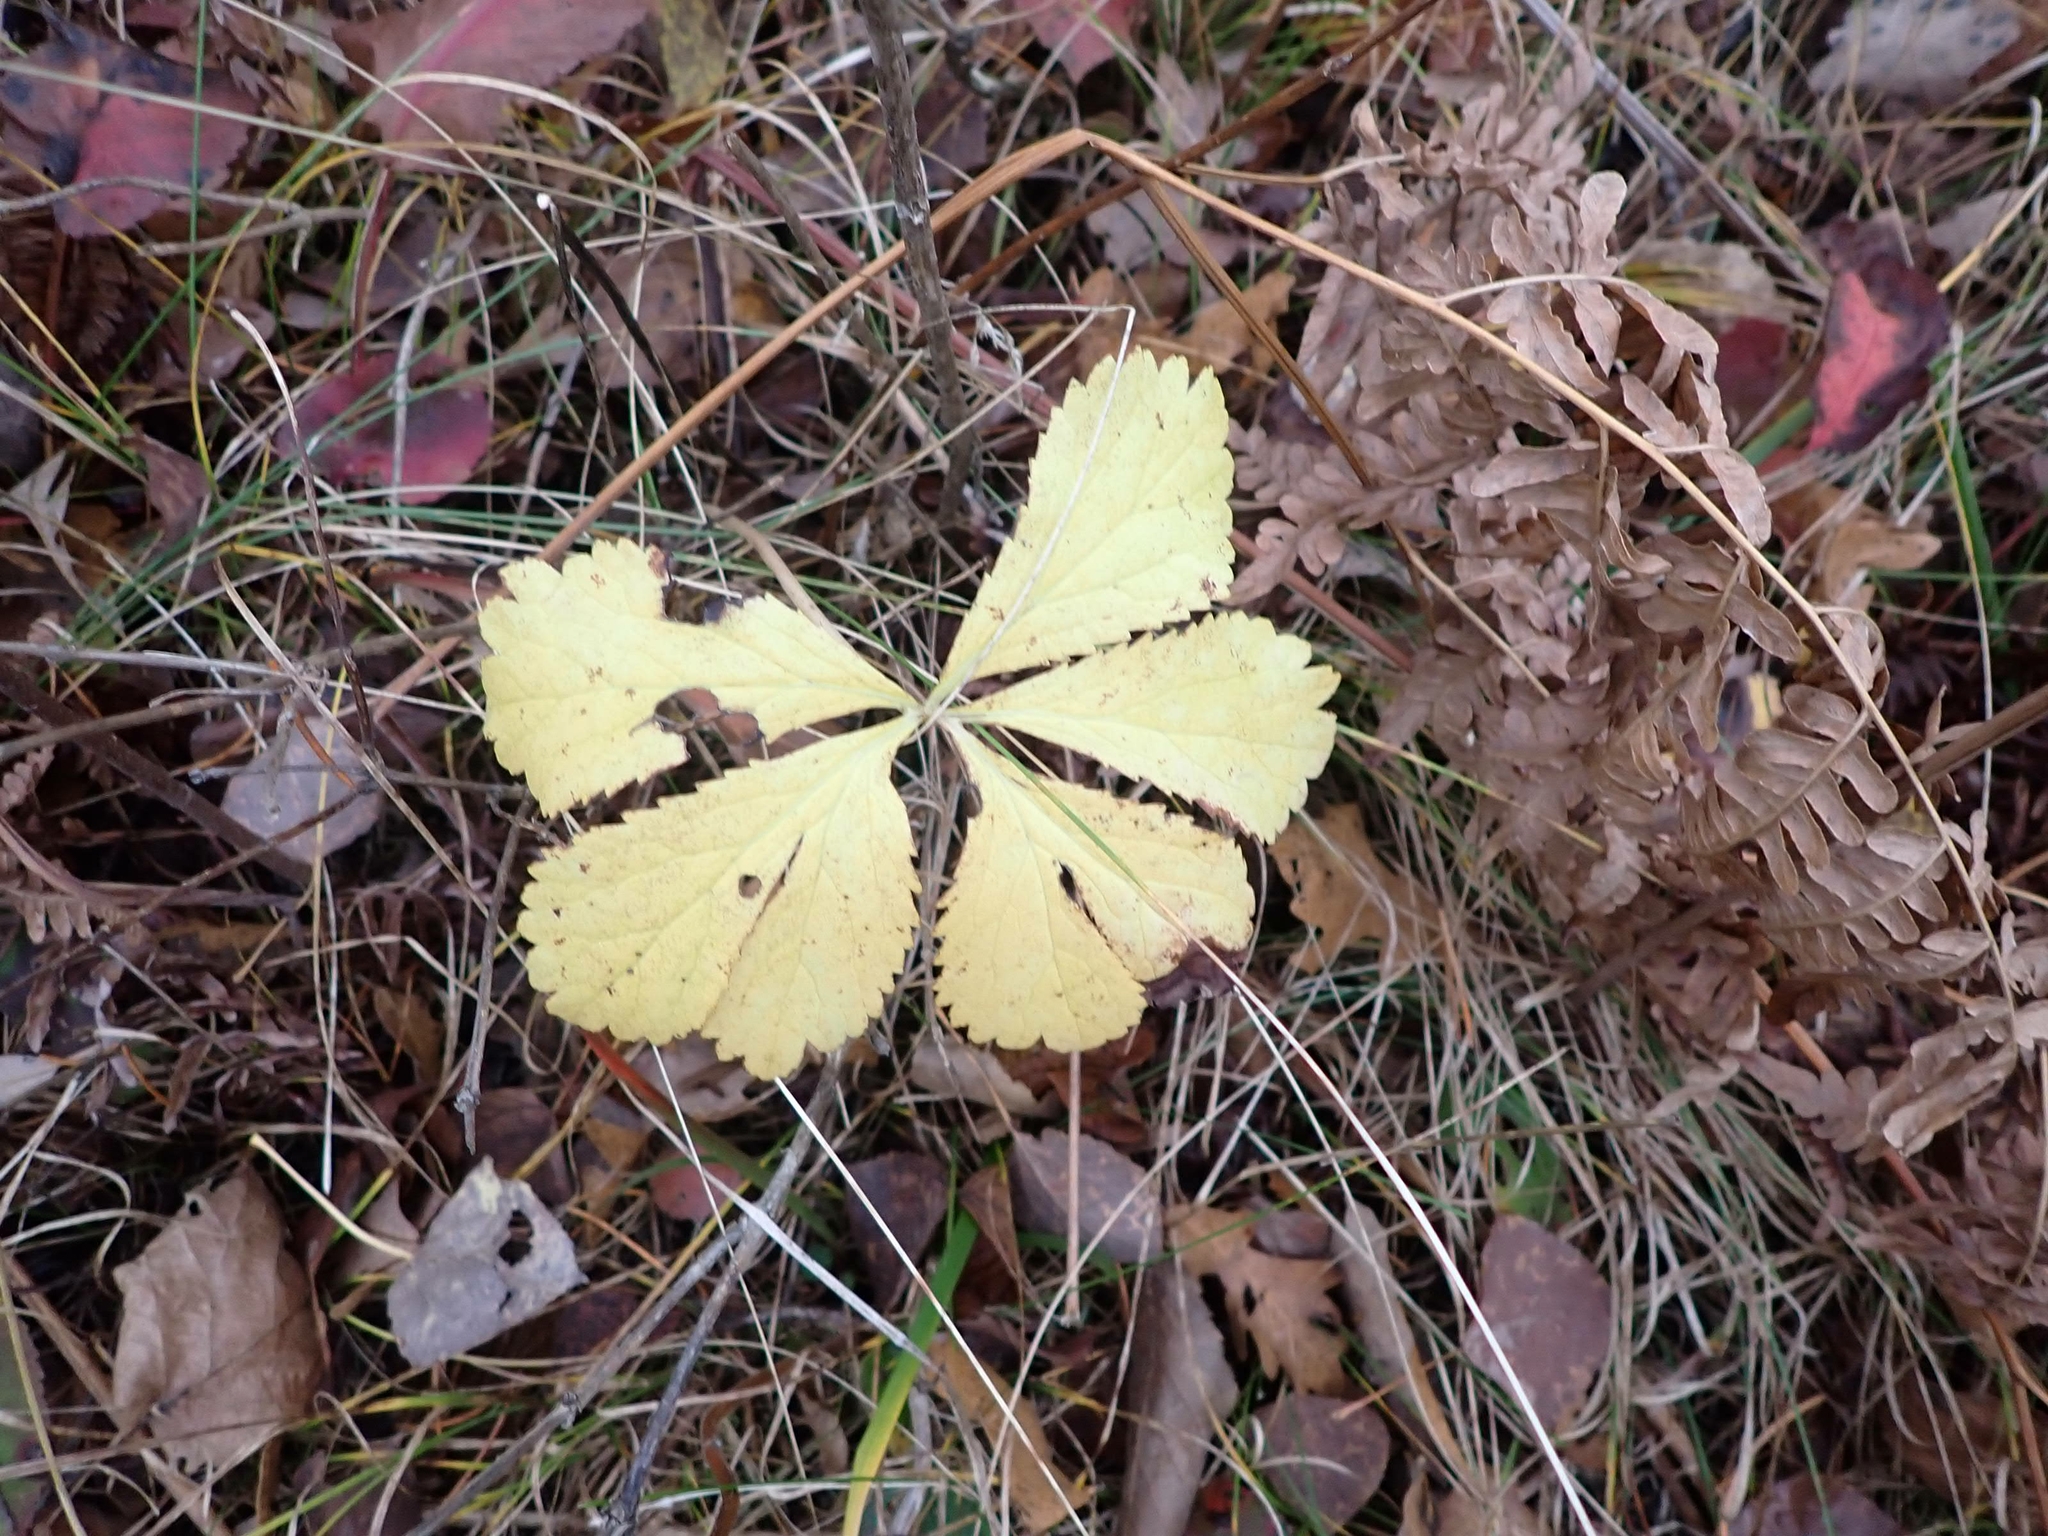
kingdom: Plantae
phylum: Tracheophyta
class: Magnoliopsida
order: Apiales
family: Apiaceae
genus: Sanicula
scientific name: Sanicula marilandica
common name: Black snakeroot
